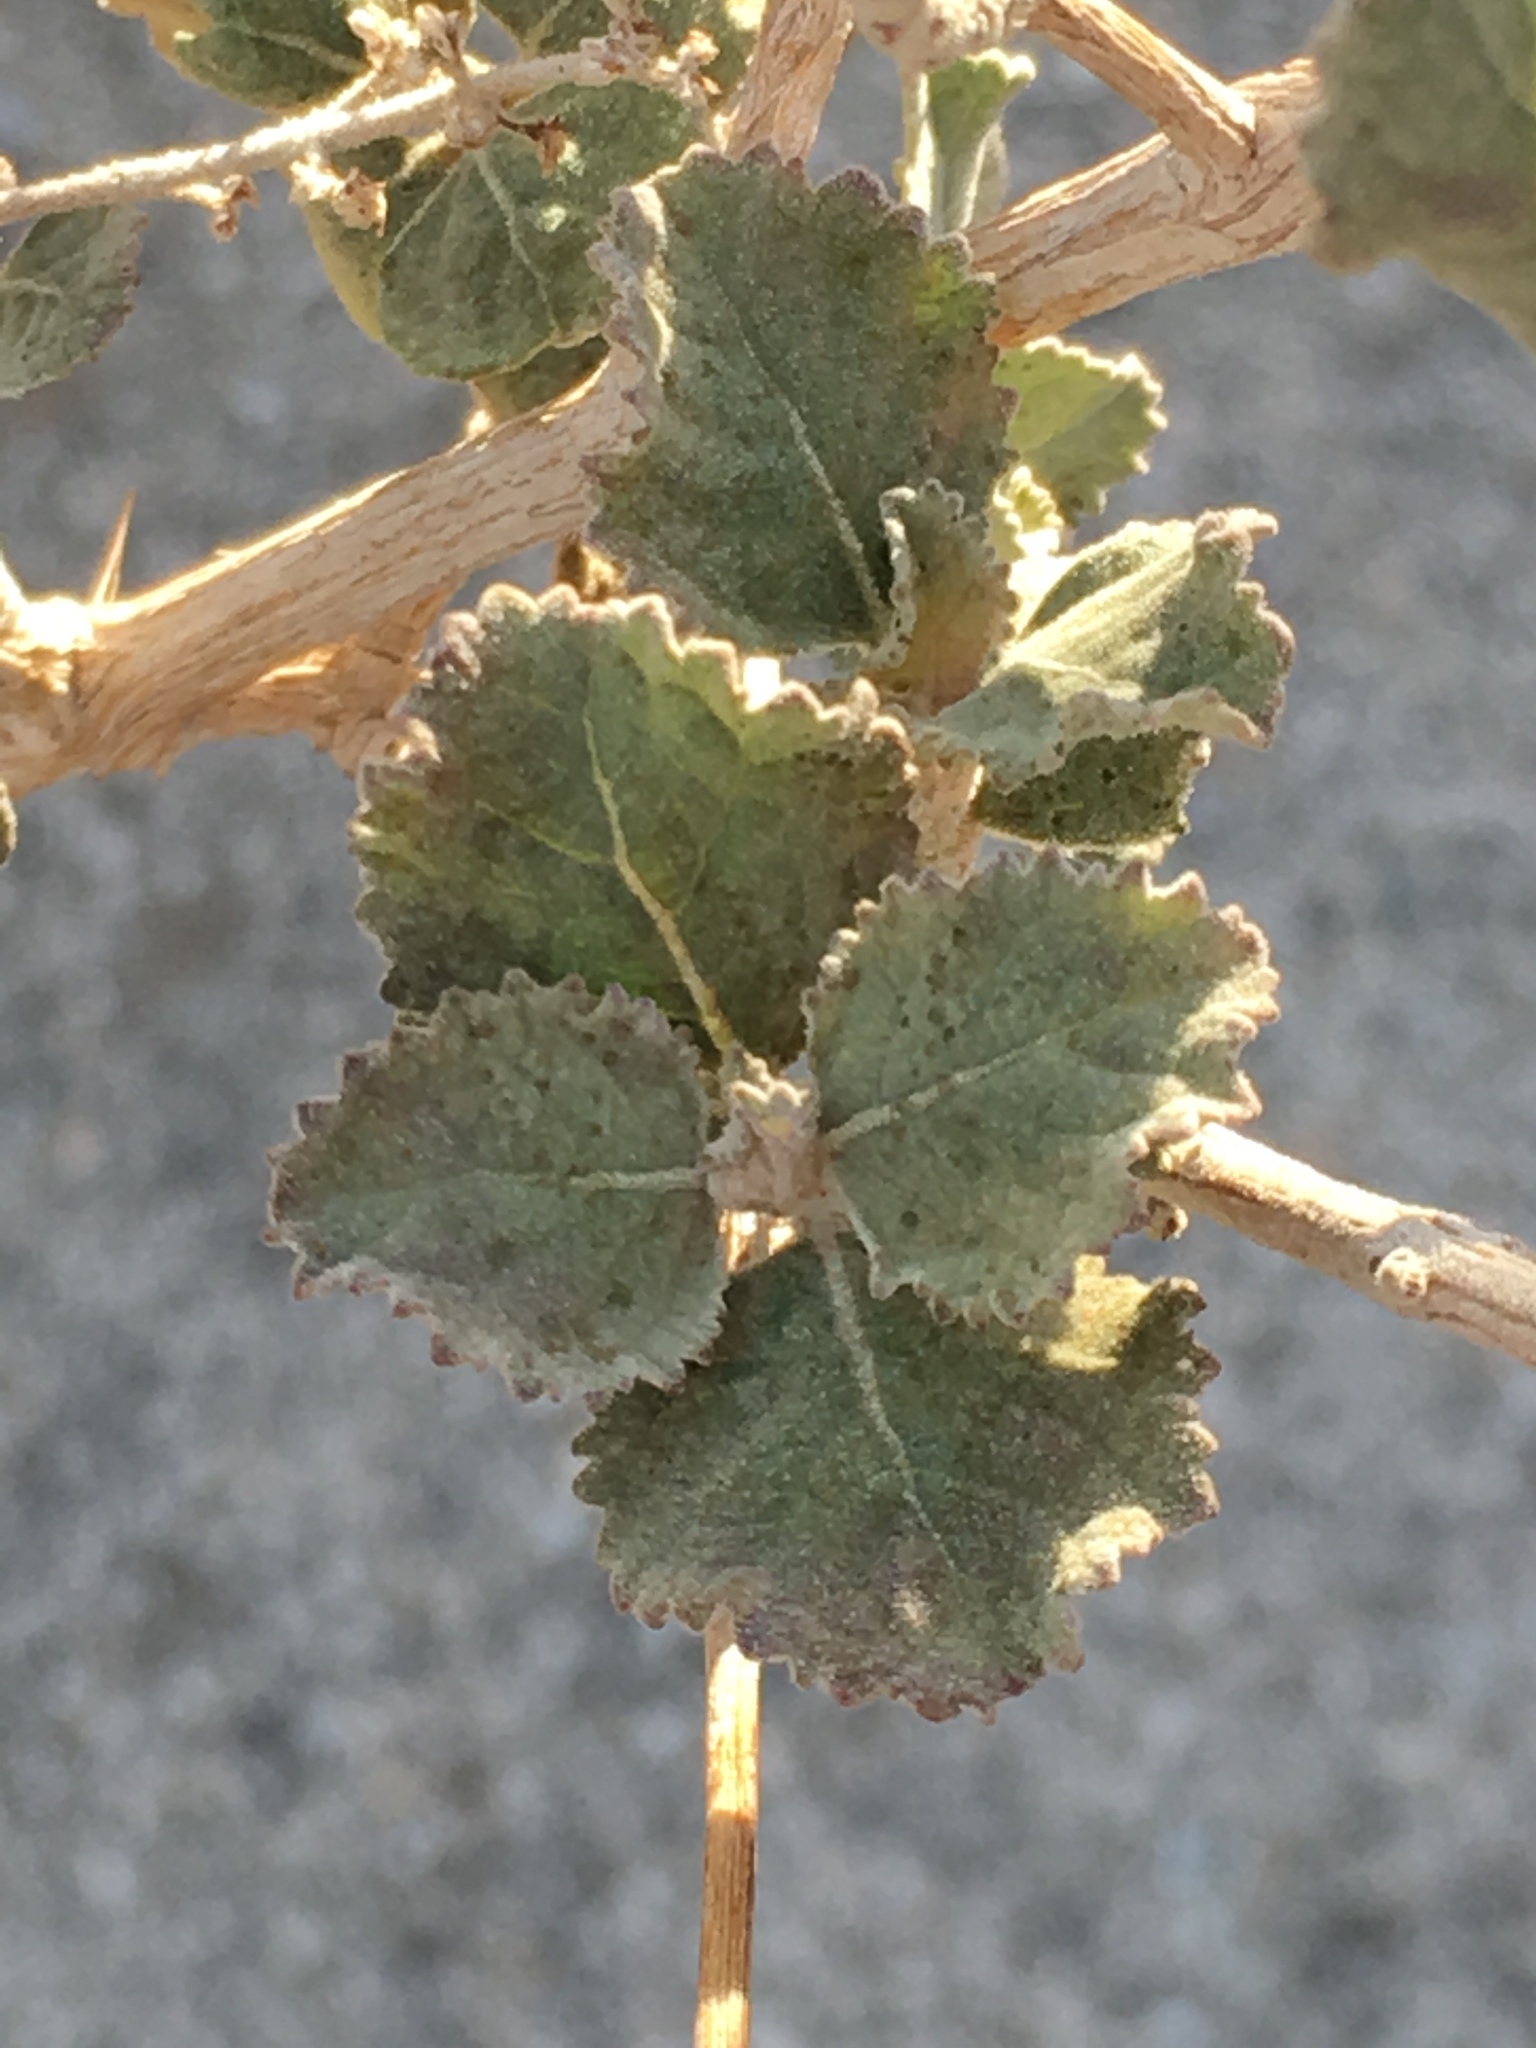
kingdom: Plantae
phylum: Tracheophyta
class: Magnoliopsida
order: Lamiales
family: Lamiaceae
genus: Condea
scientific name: Condea emoryi
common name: Chia
